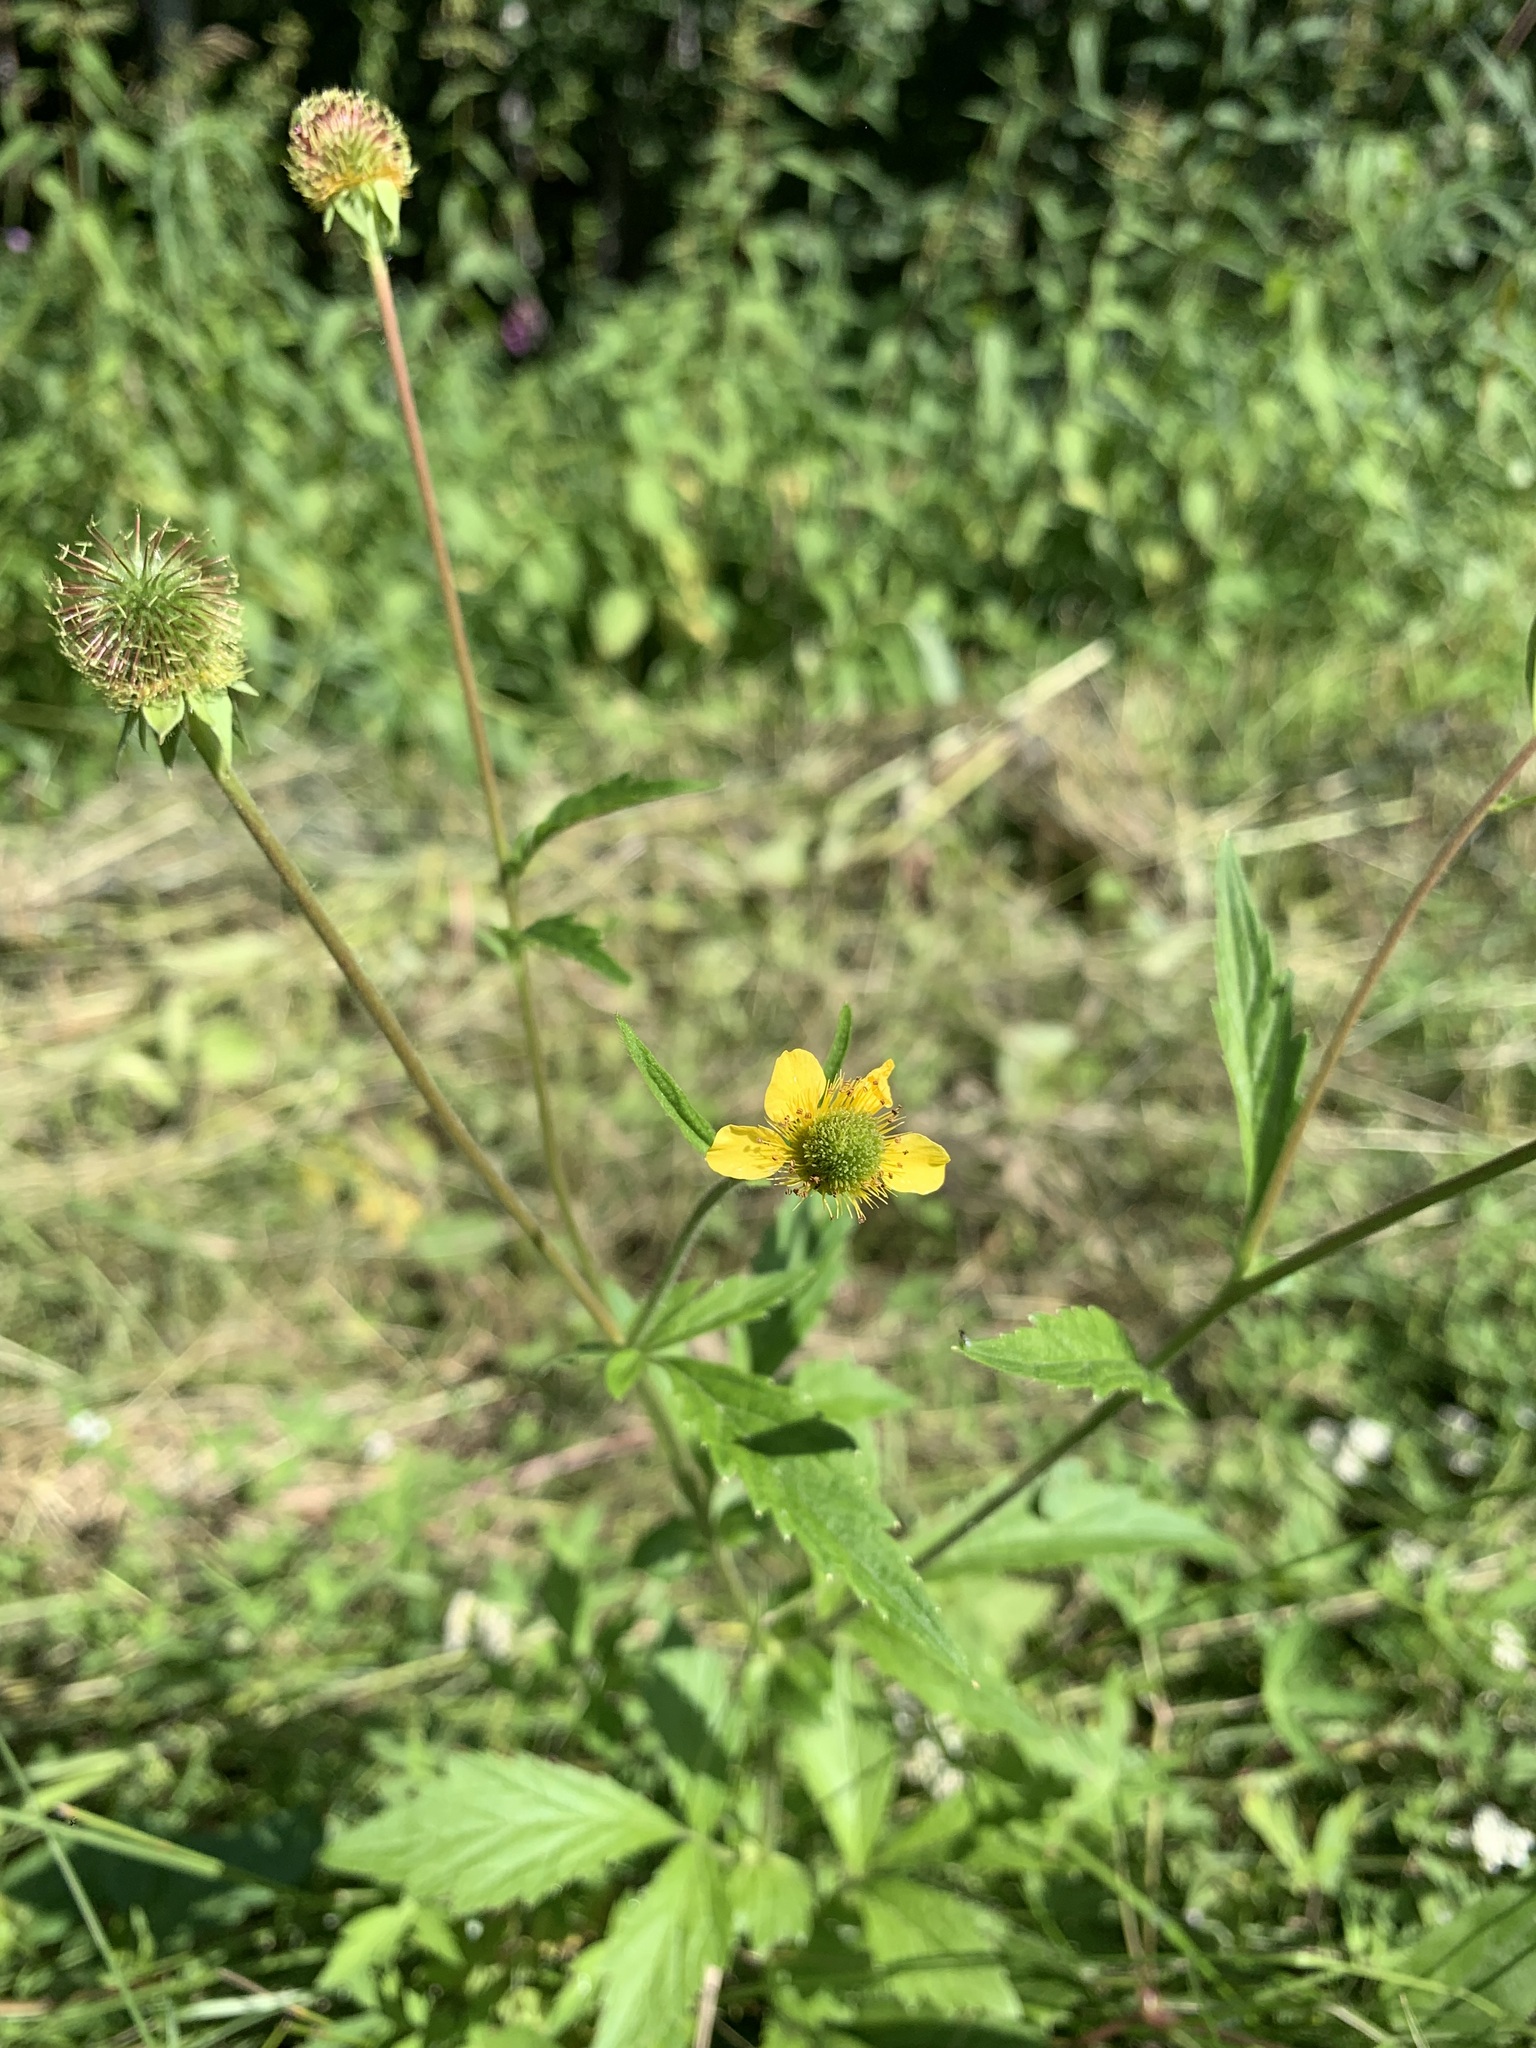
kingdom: Plantae
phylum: Tracheophyta
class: Magnoliopsida
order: Rosales
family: Rosaceae
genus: Geum
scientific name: Geum aleppicum
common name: Yellow avens
